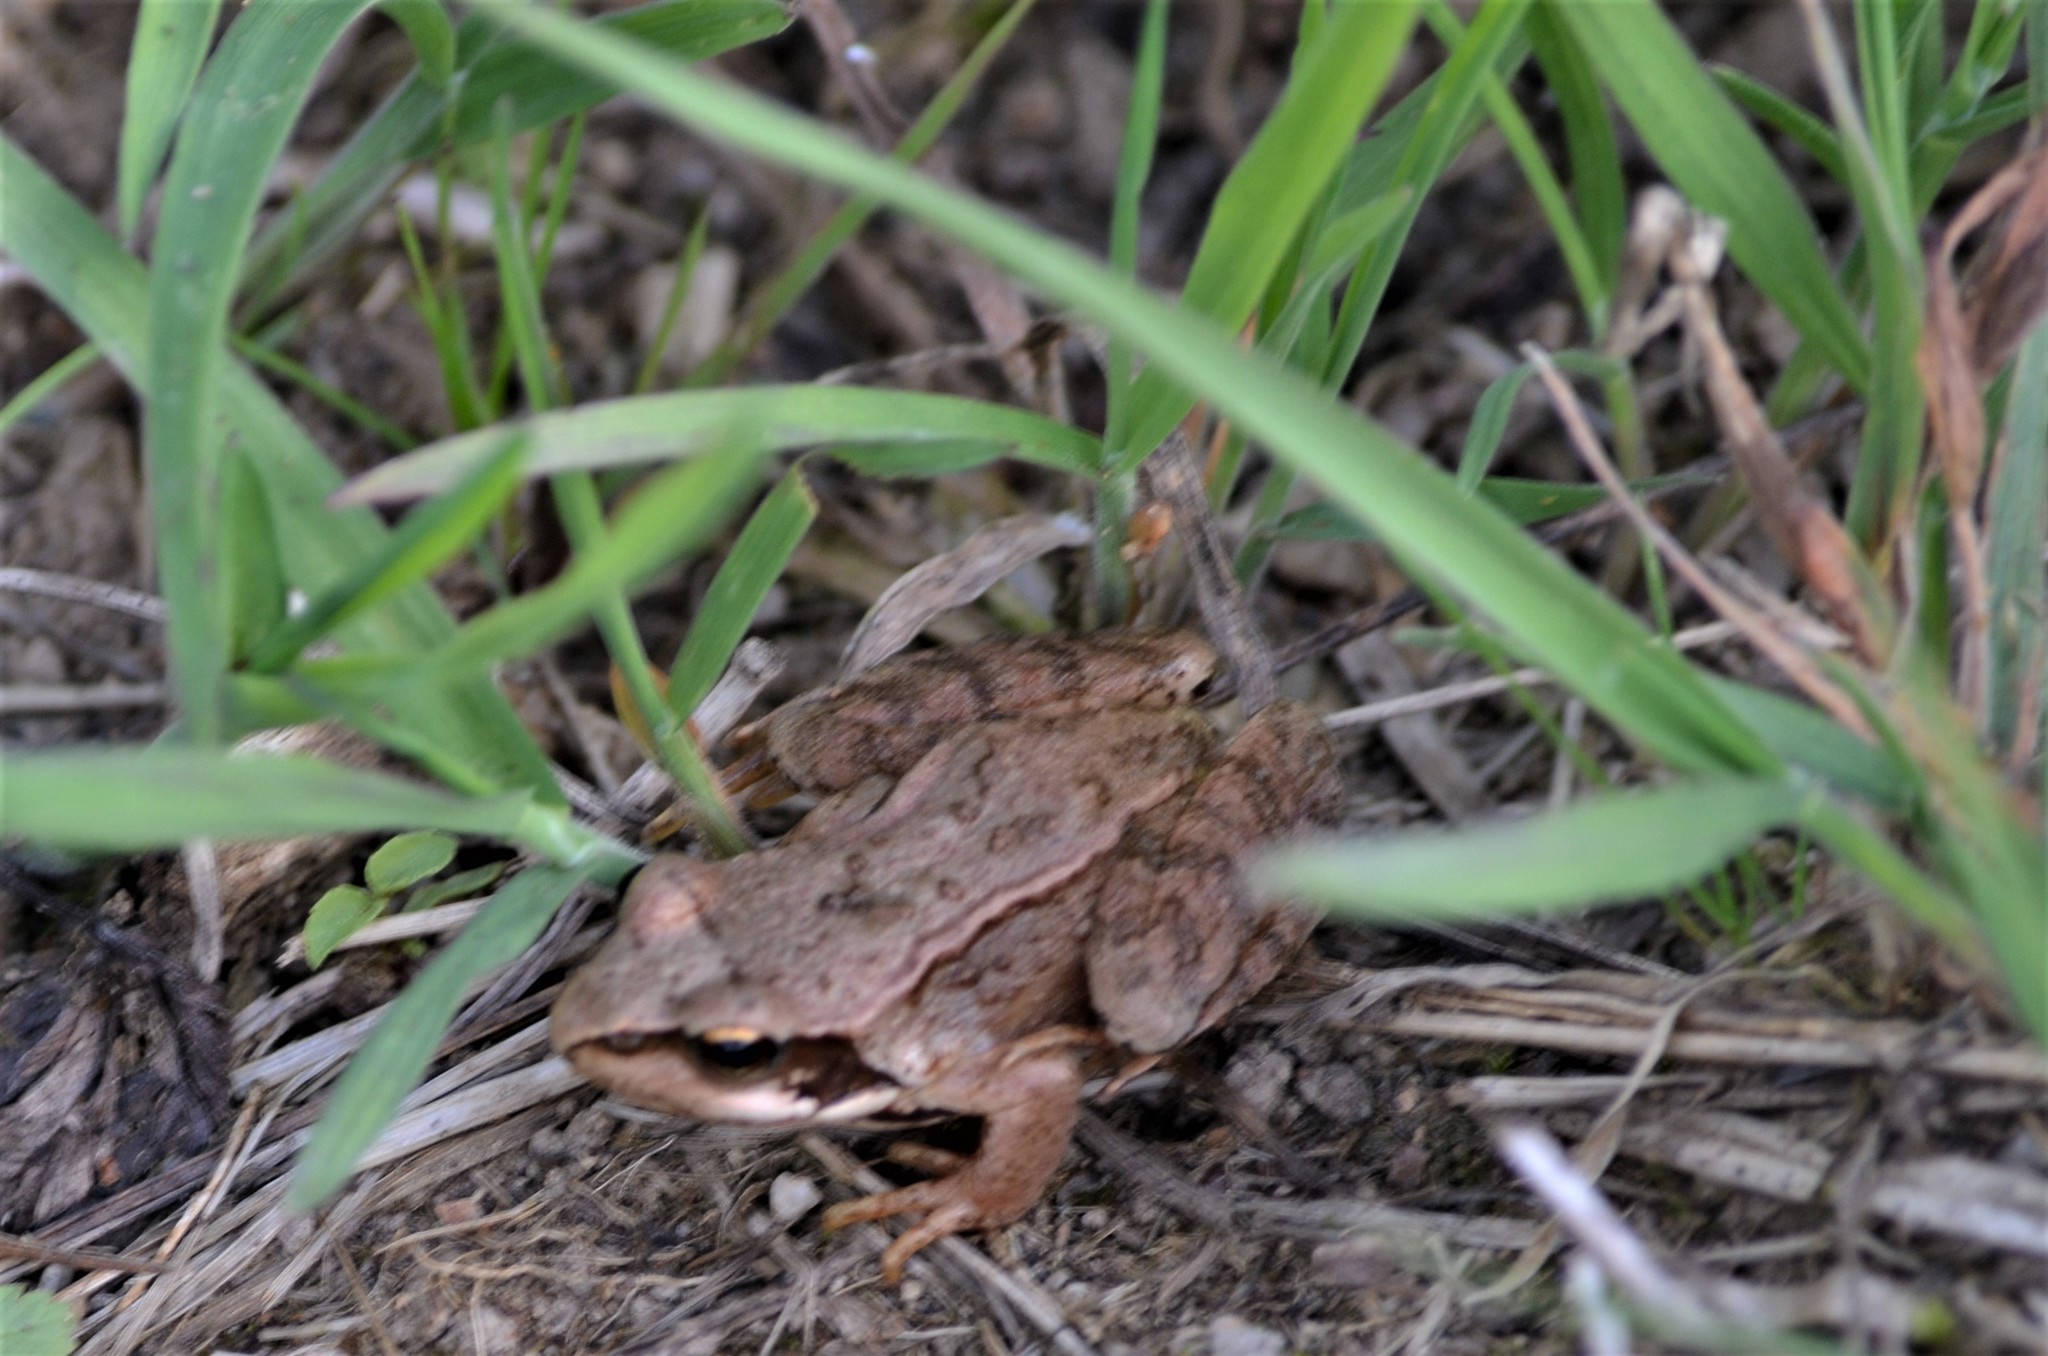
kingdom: Animalia
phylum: Chordata
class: Amphibia
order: Anura
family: Ranidae
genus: Rana
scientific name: Rana temporaria
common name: Common frog
